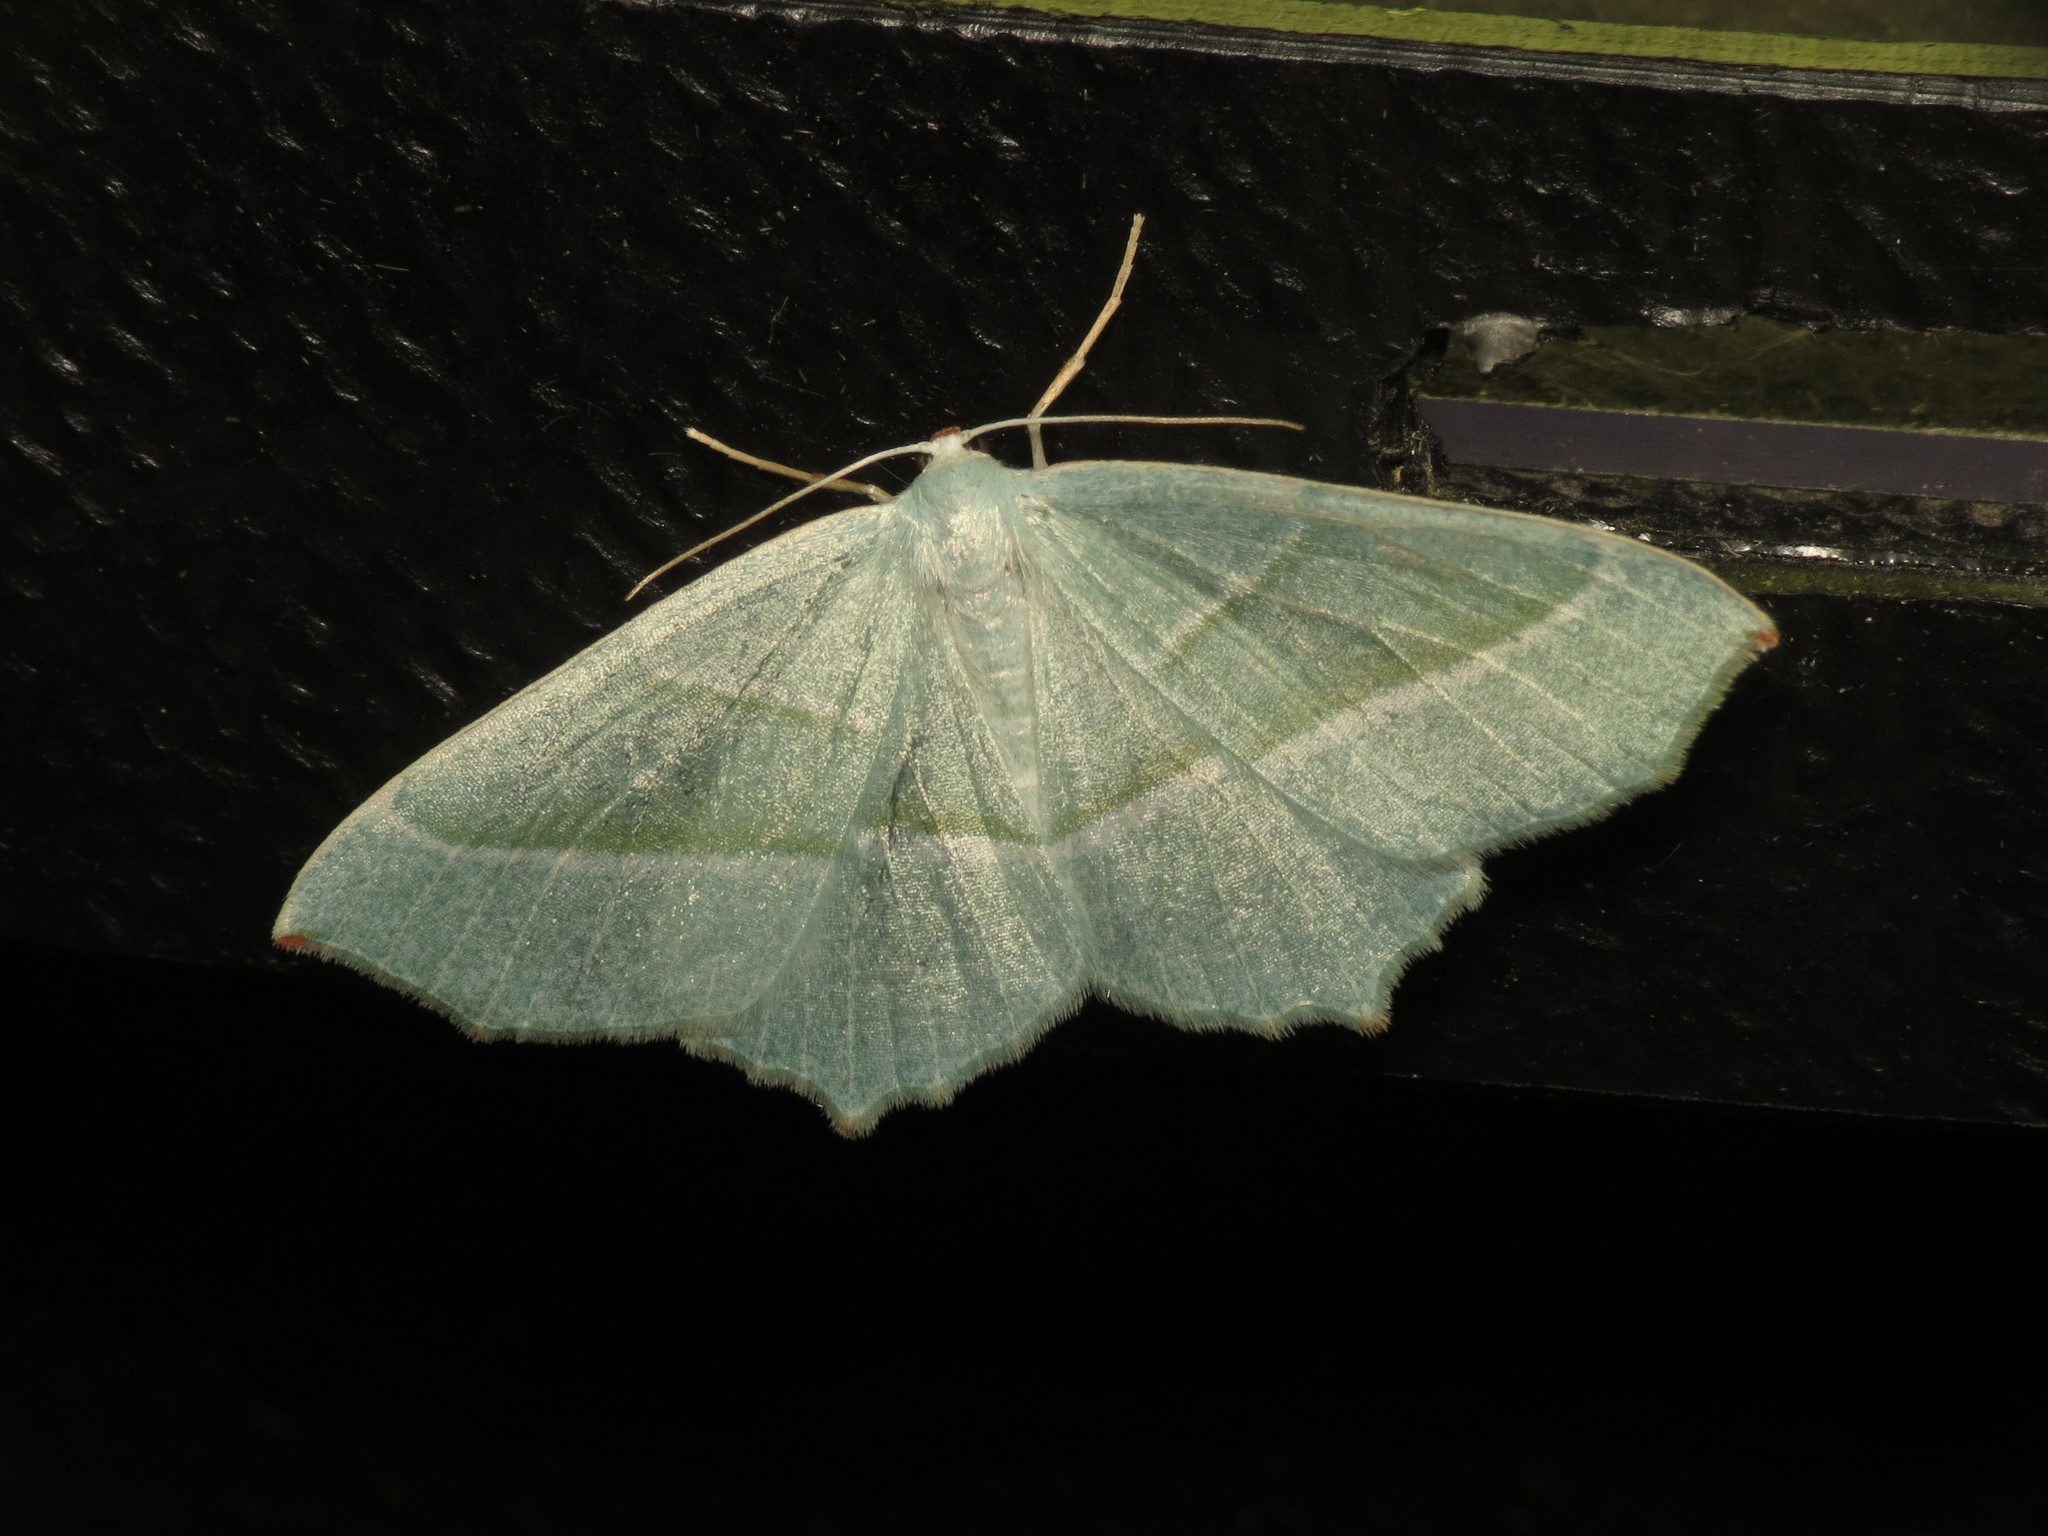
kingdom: Animalia
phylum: Arthropoda
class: Insecta
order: Lepidoptera
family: Geometridae
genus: Campaea
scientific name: Campaea margaritaria
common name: Light emerald
